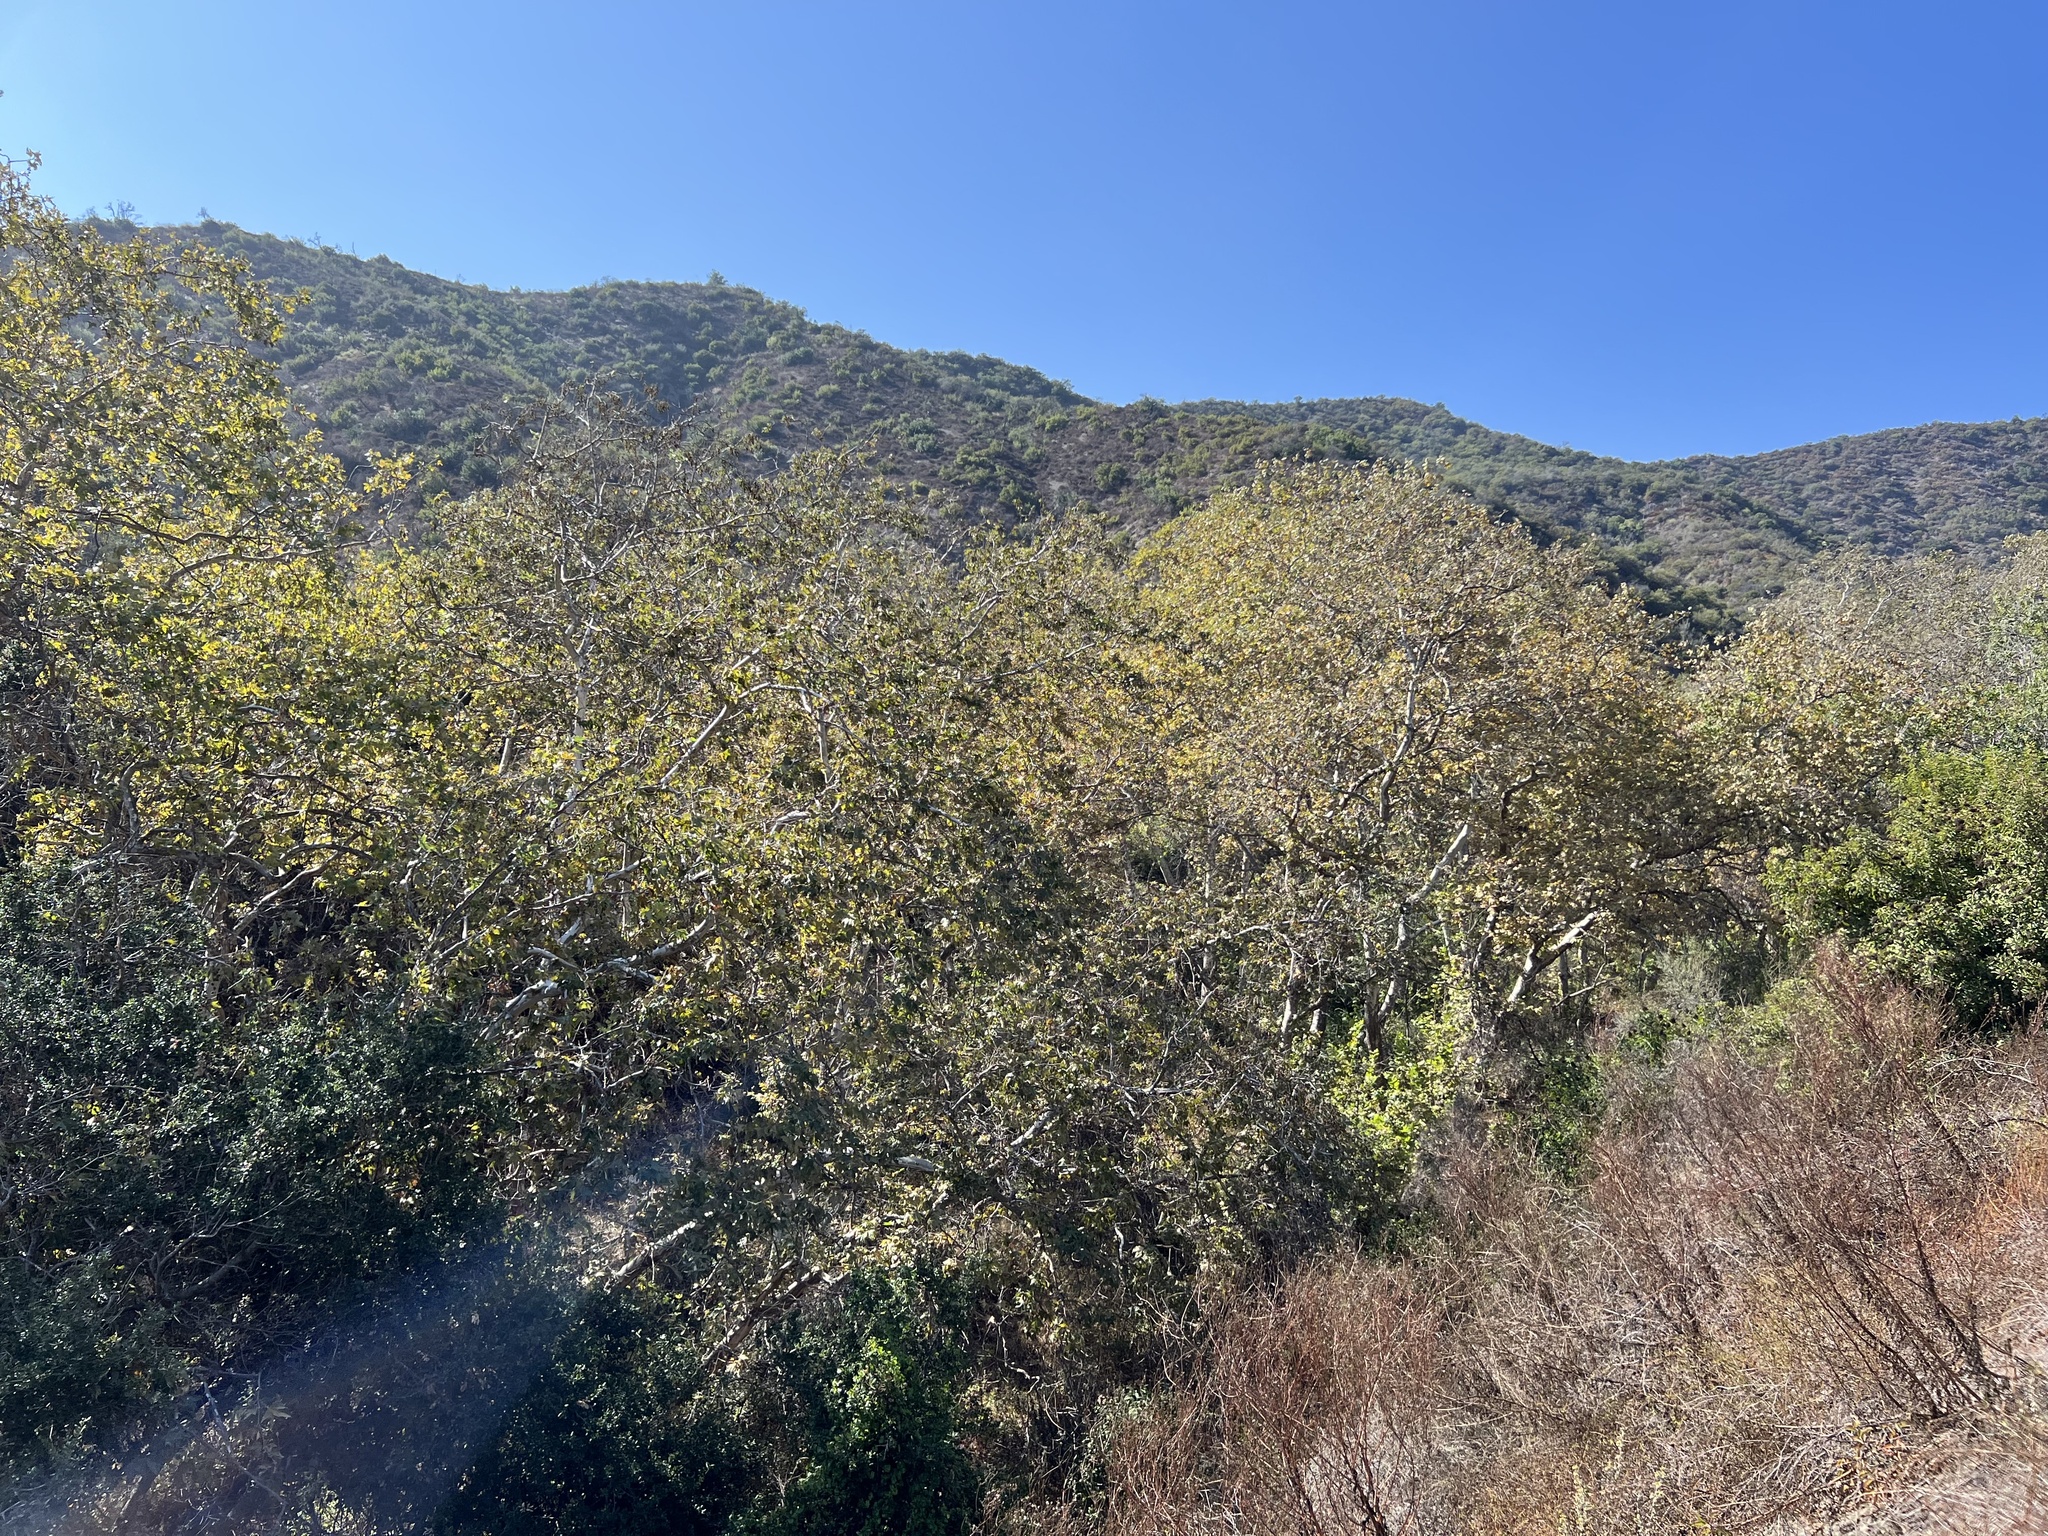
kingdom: Plantae
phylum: Tracheophyta
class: Magnoliopsida
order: Proteales
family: Platanaceae
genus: Platanus
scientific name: Platanus racemosa
